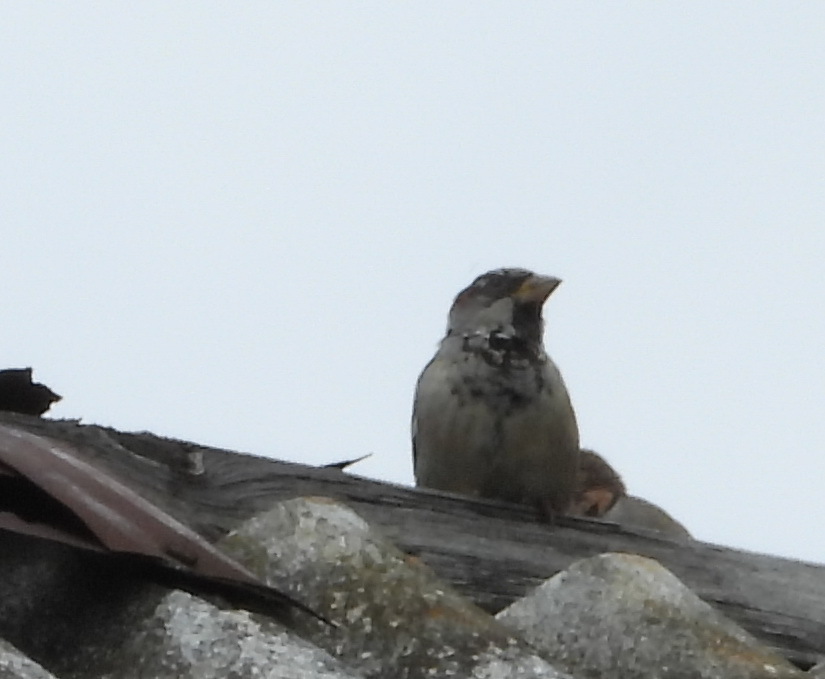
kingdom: Animalia
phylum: Chordata
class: Aves
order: Passeriformes
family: Passeridae
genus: Passer
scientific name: Passer domesticus
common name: House sparrow
